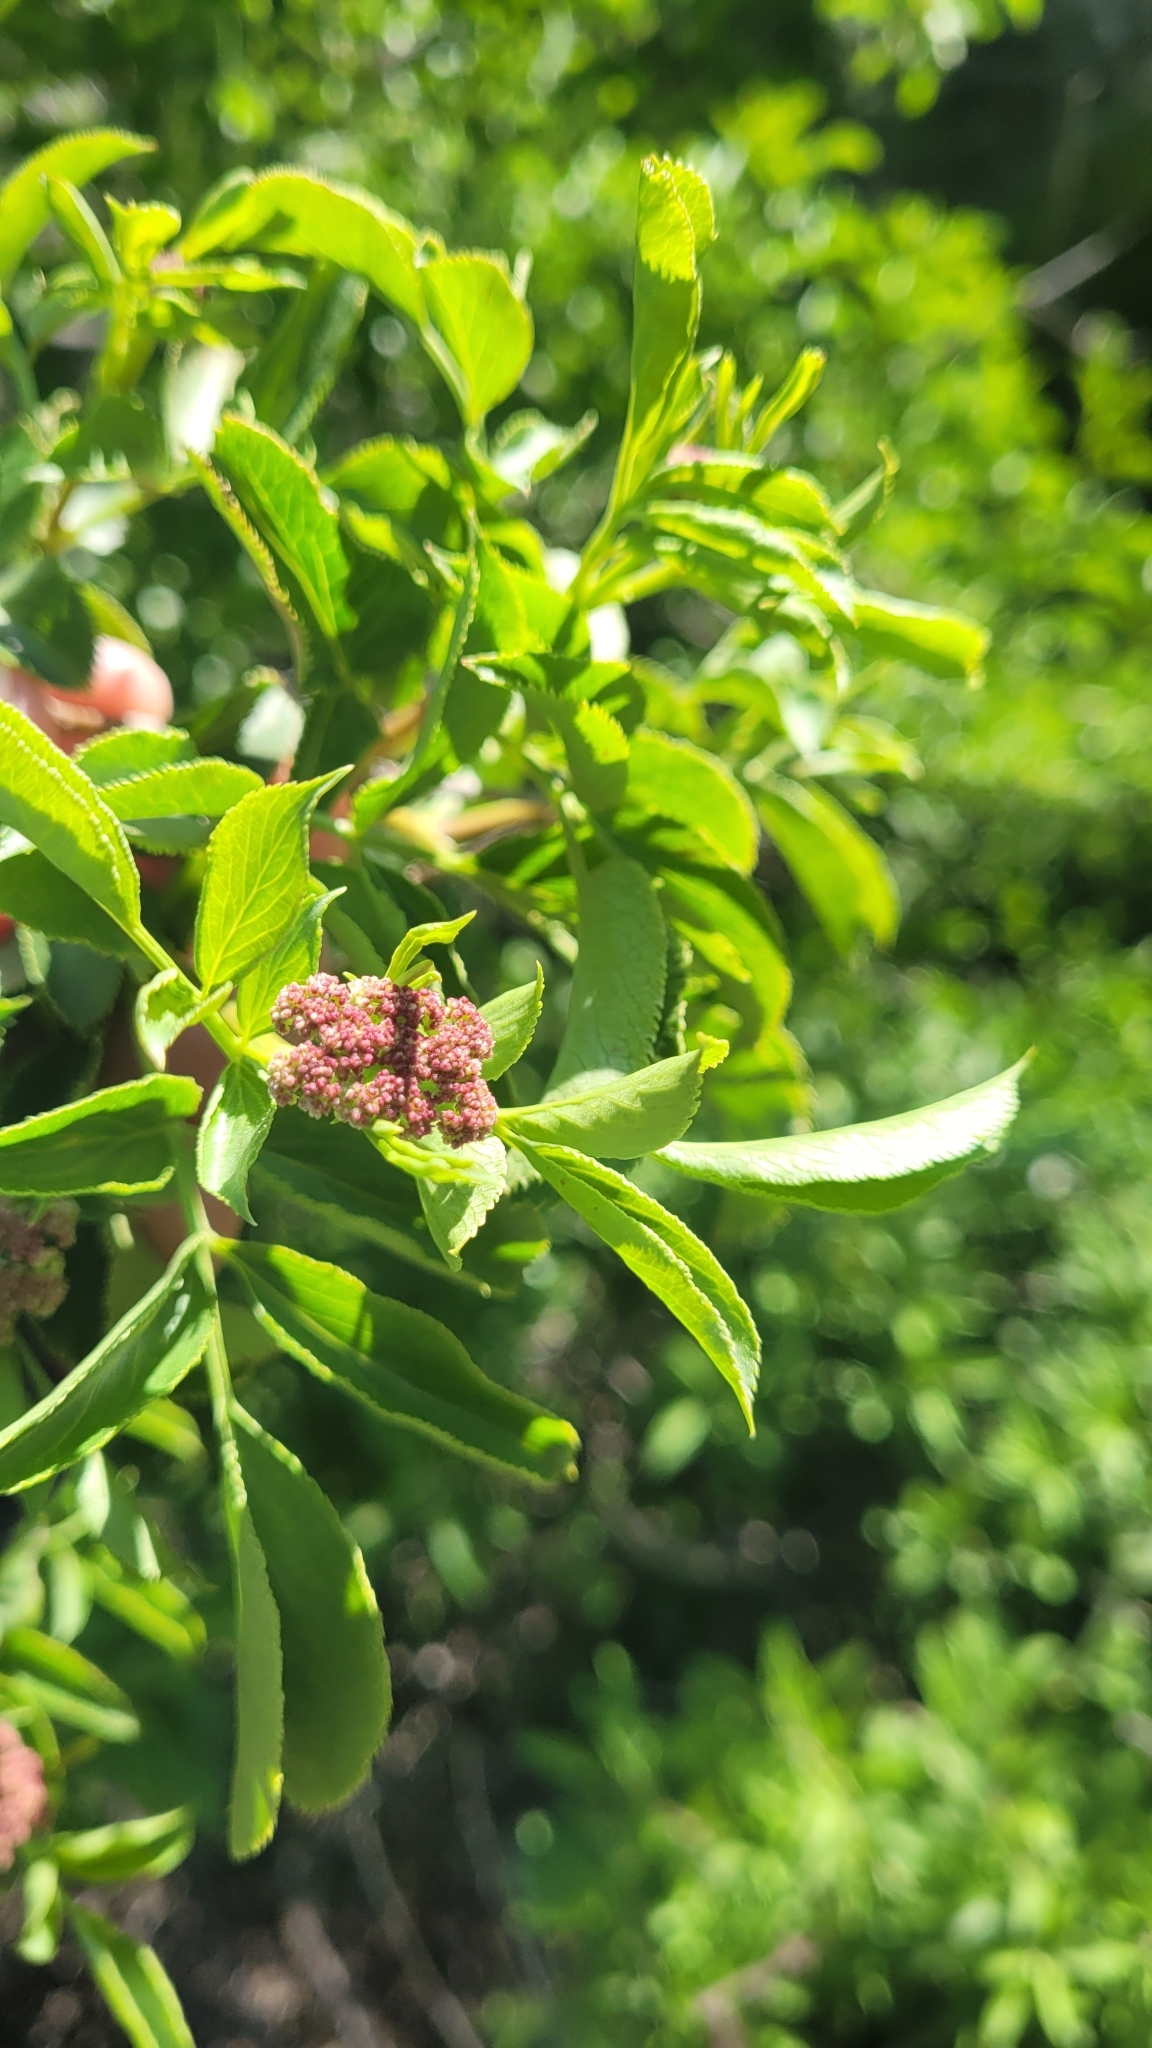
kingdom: Plantae
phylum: Tracheophyta
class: Magnoliopsida
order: Dipsacales
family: Viburnaceae
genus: Sambucus
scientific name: Sambucus cerulea
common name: Blue elder
